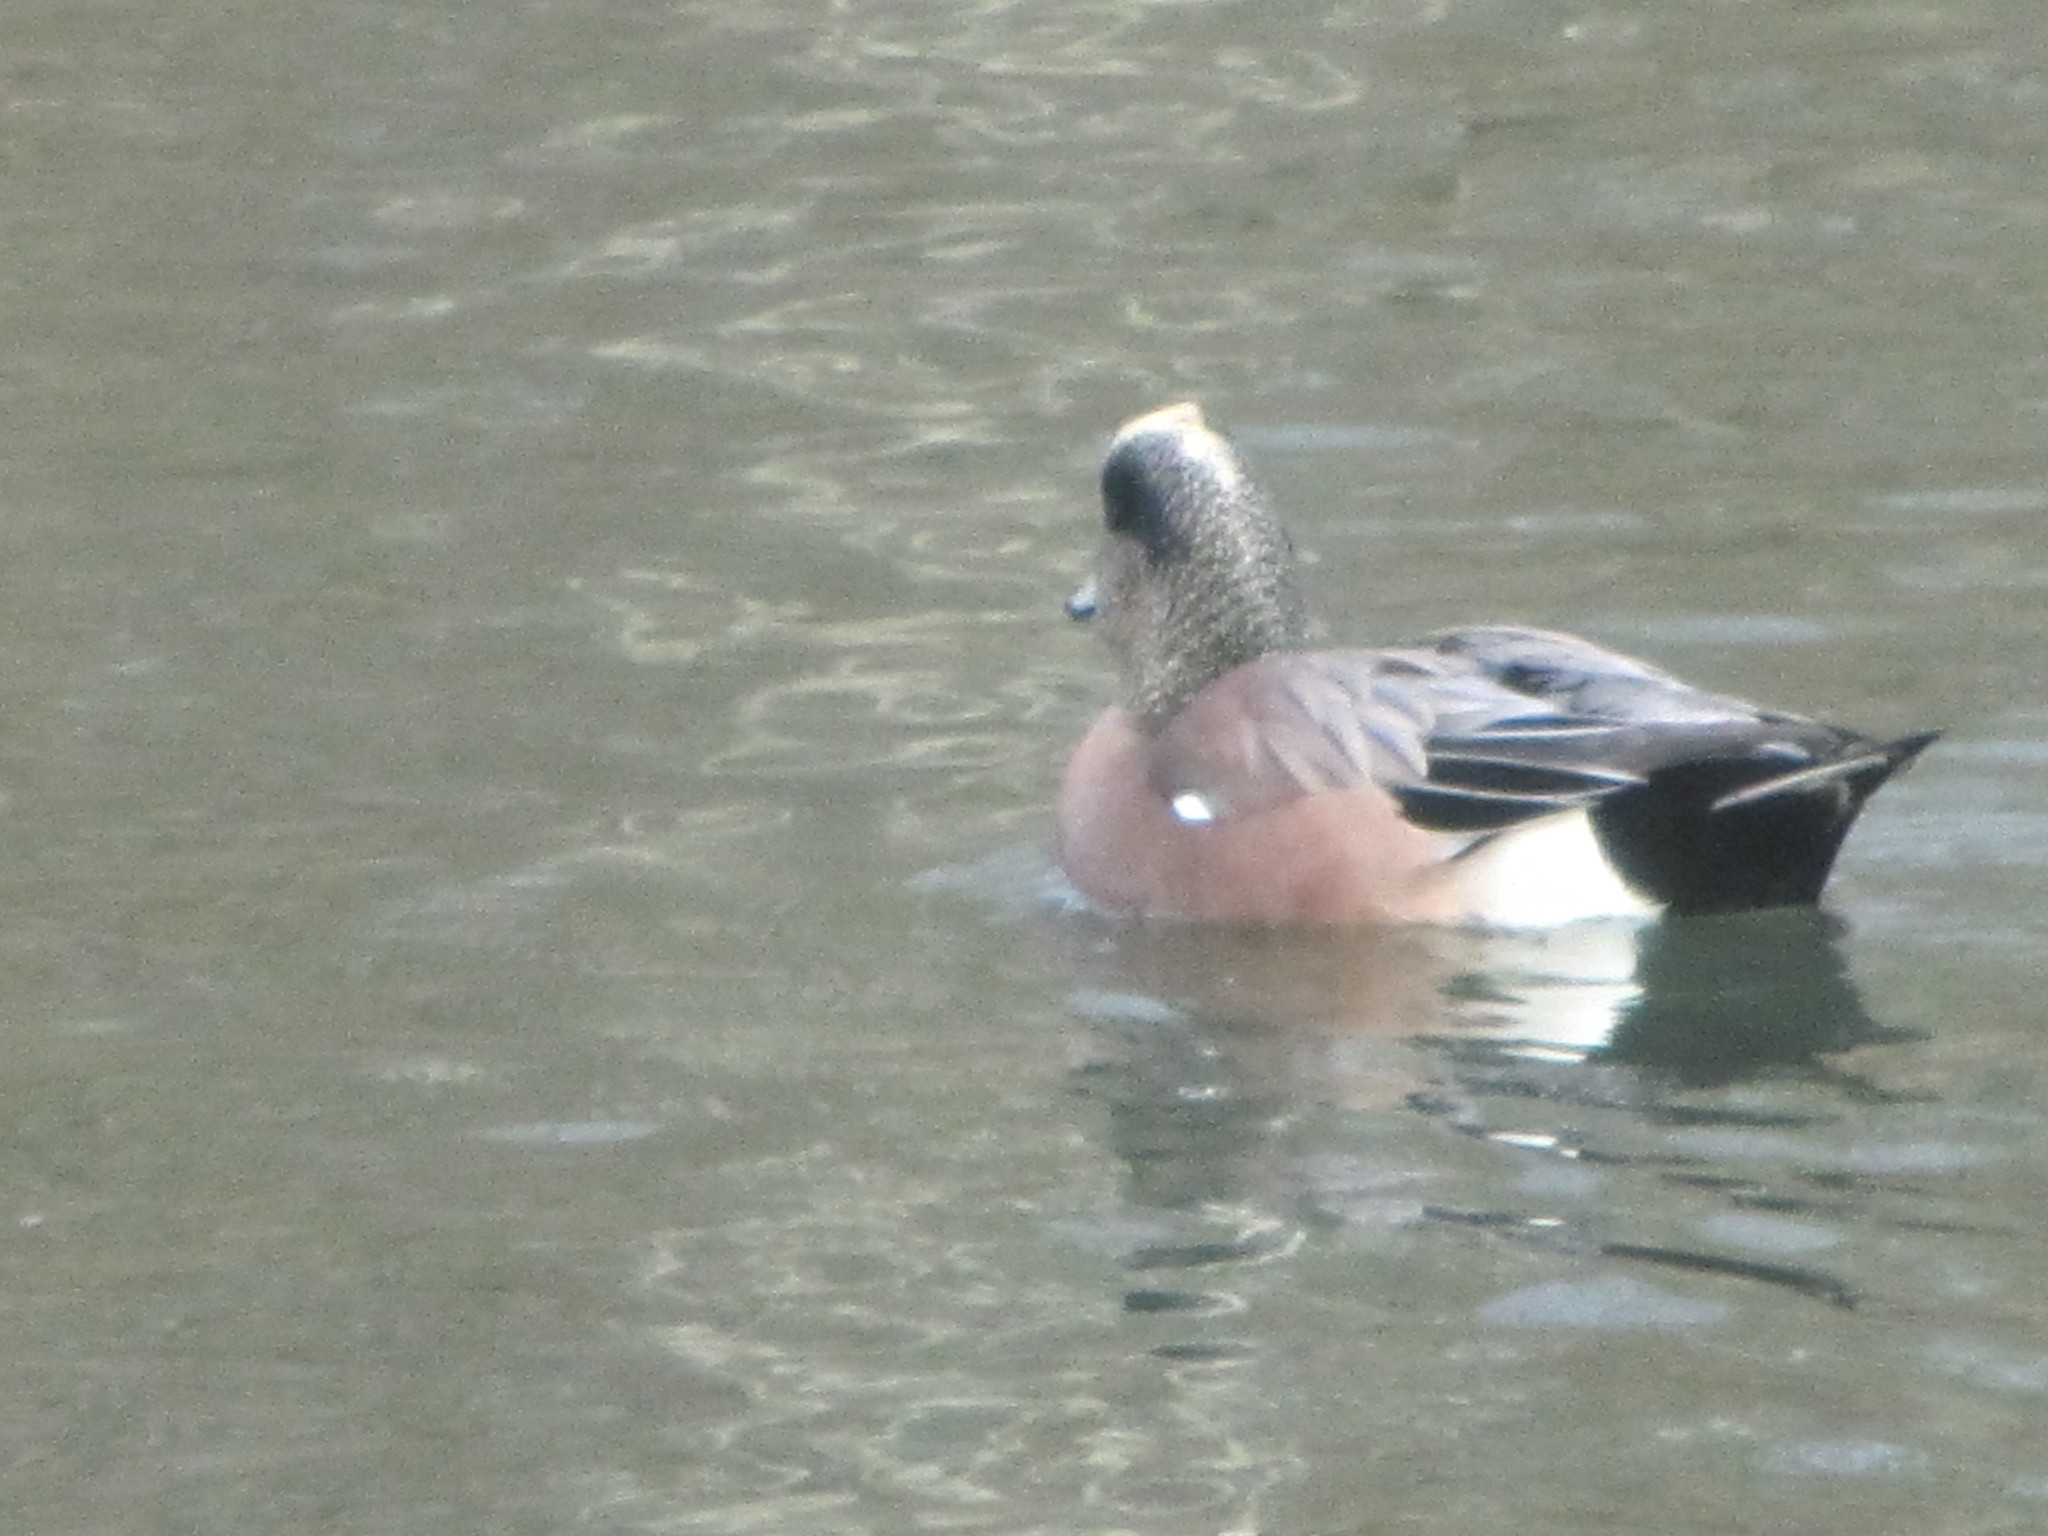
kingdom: Animalia
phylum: Chordata
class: Aves
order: Anseriformes
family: Anatidae
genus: Mareca
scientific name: Mareca americana
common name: American wigeon
